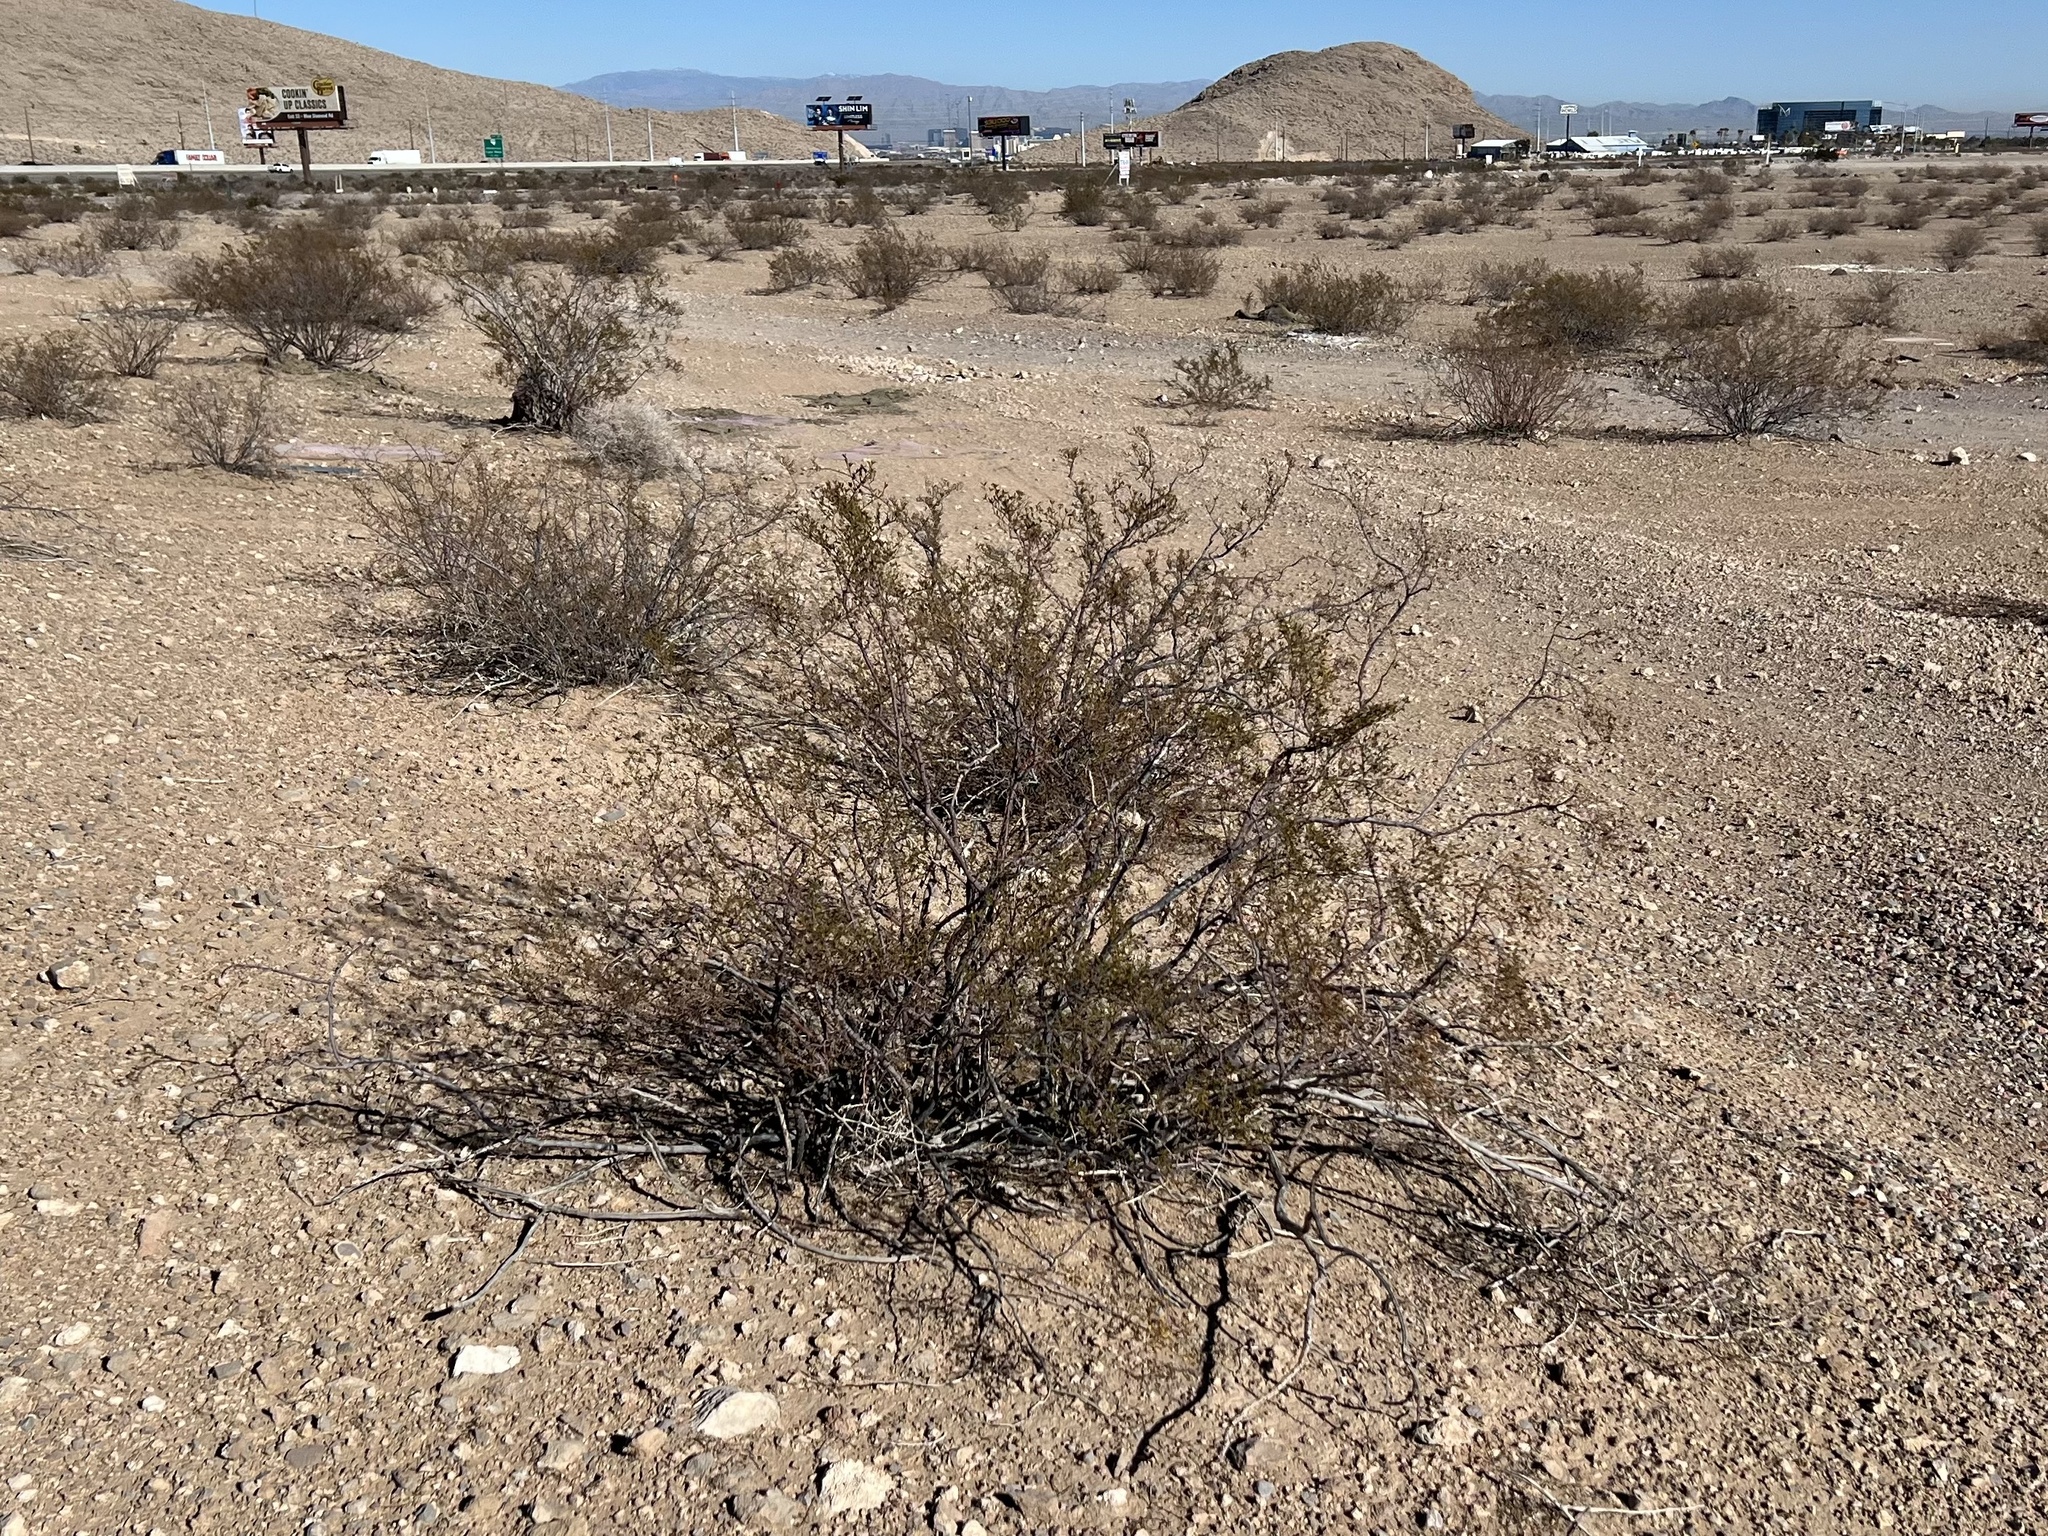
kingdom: Plantae
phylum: Tracheophyta
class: Magnoliopsida
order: Zygophyllales
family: Zygophyllaceae
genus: Larrea
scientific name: Larrea tridentata
